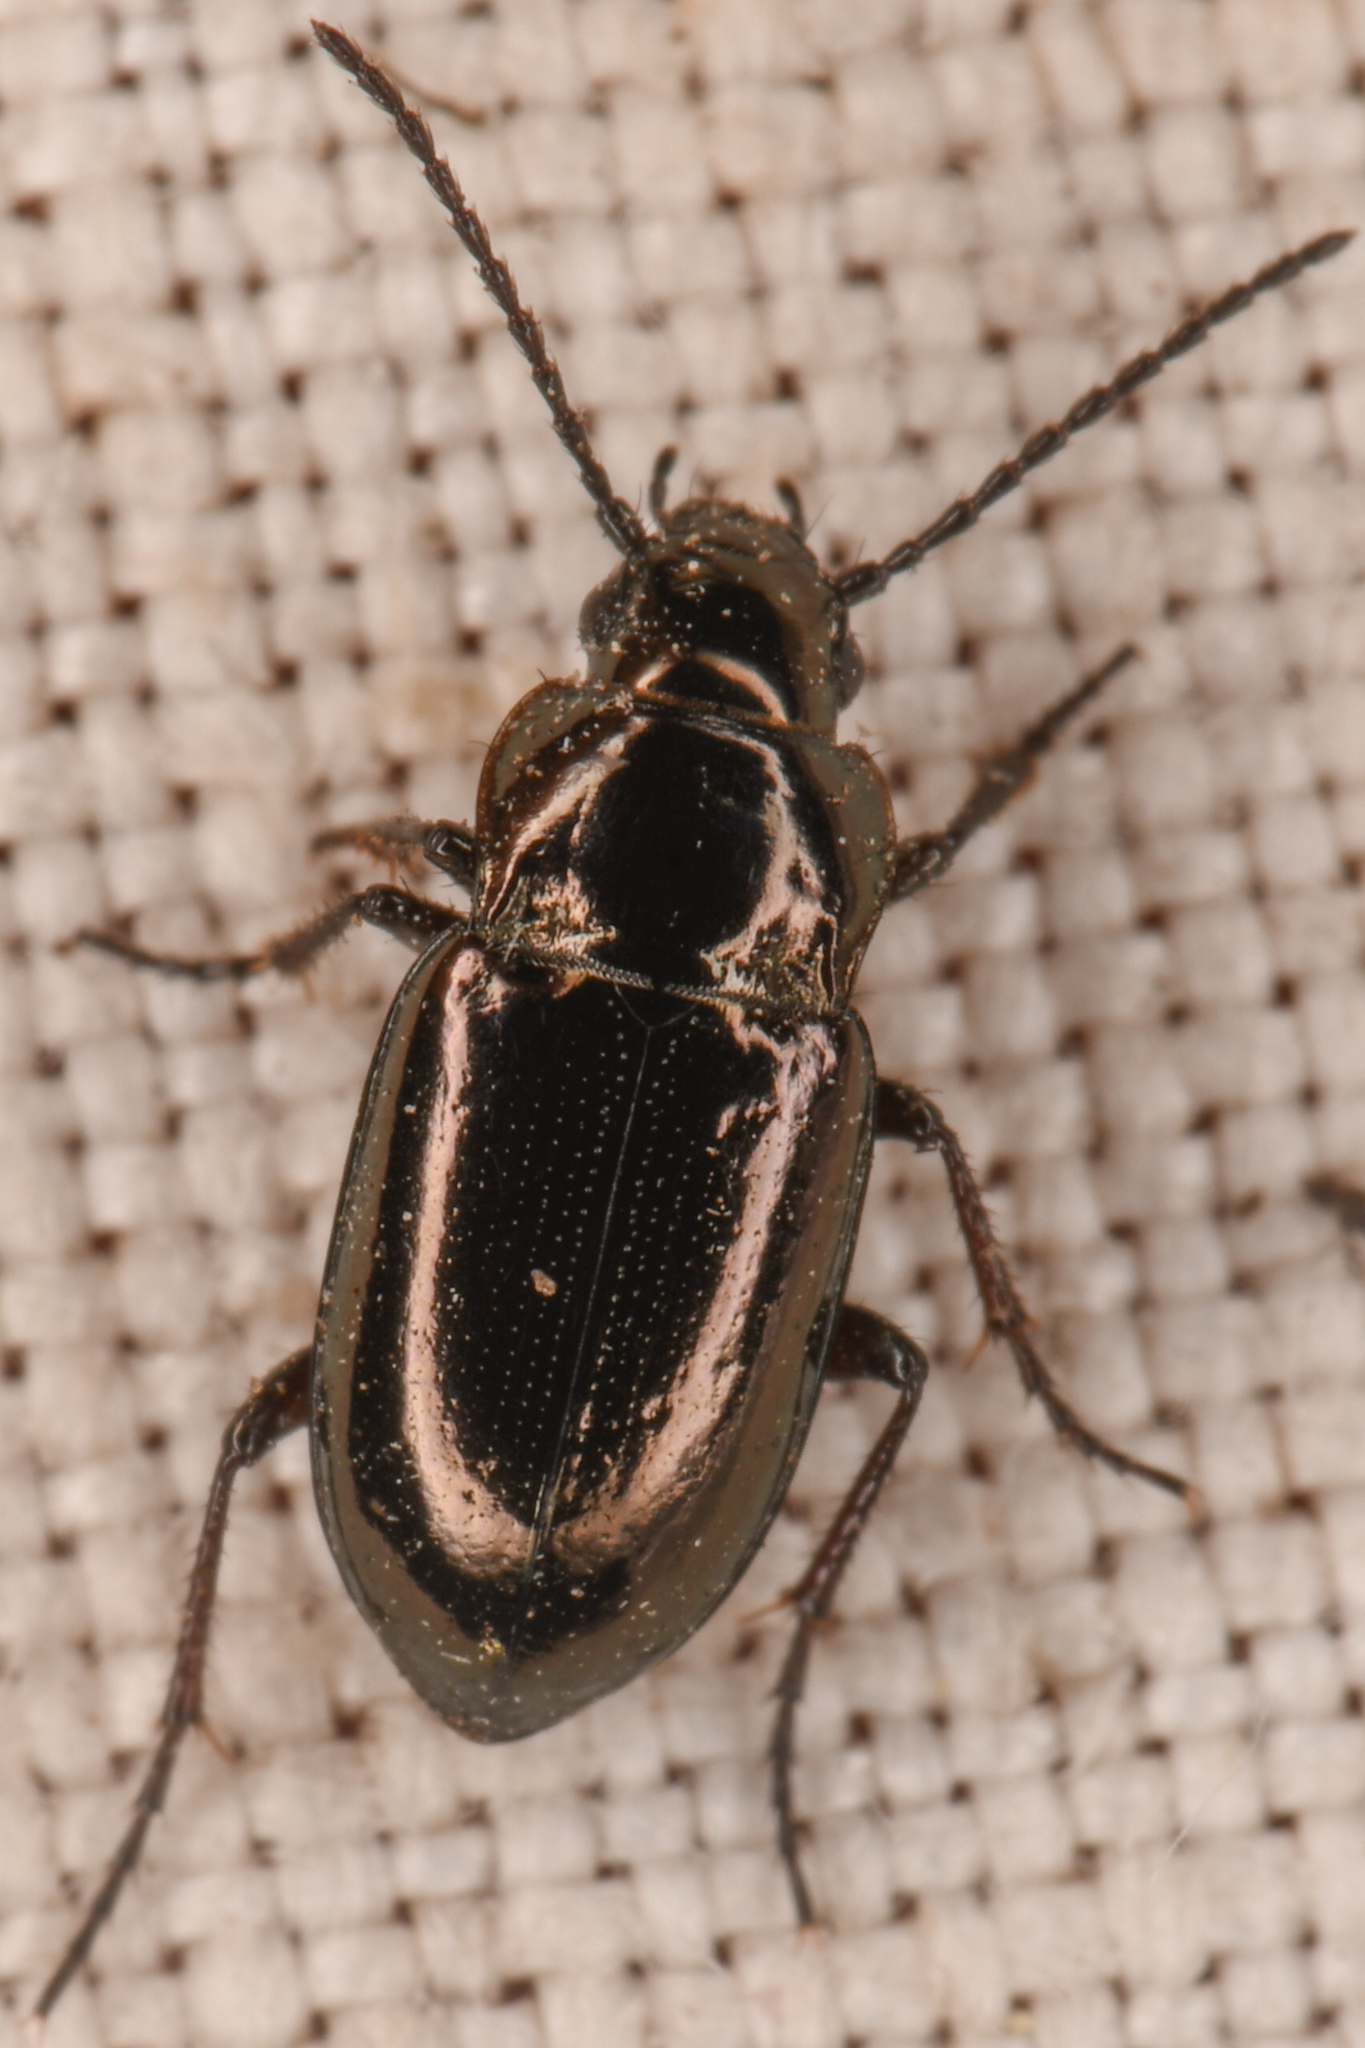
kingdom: Animalia
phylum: Arthropoda
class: Insecta
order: Coleoptera
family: Trachypachidae
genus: Trachypachus
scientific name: Trachypachus inermis
